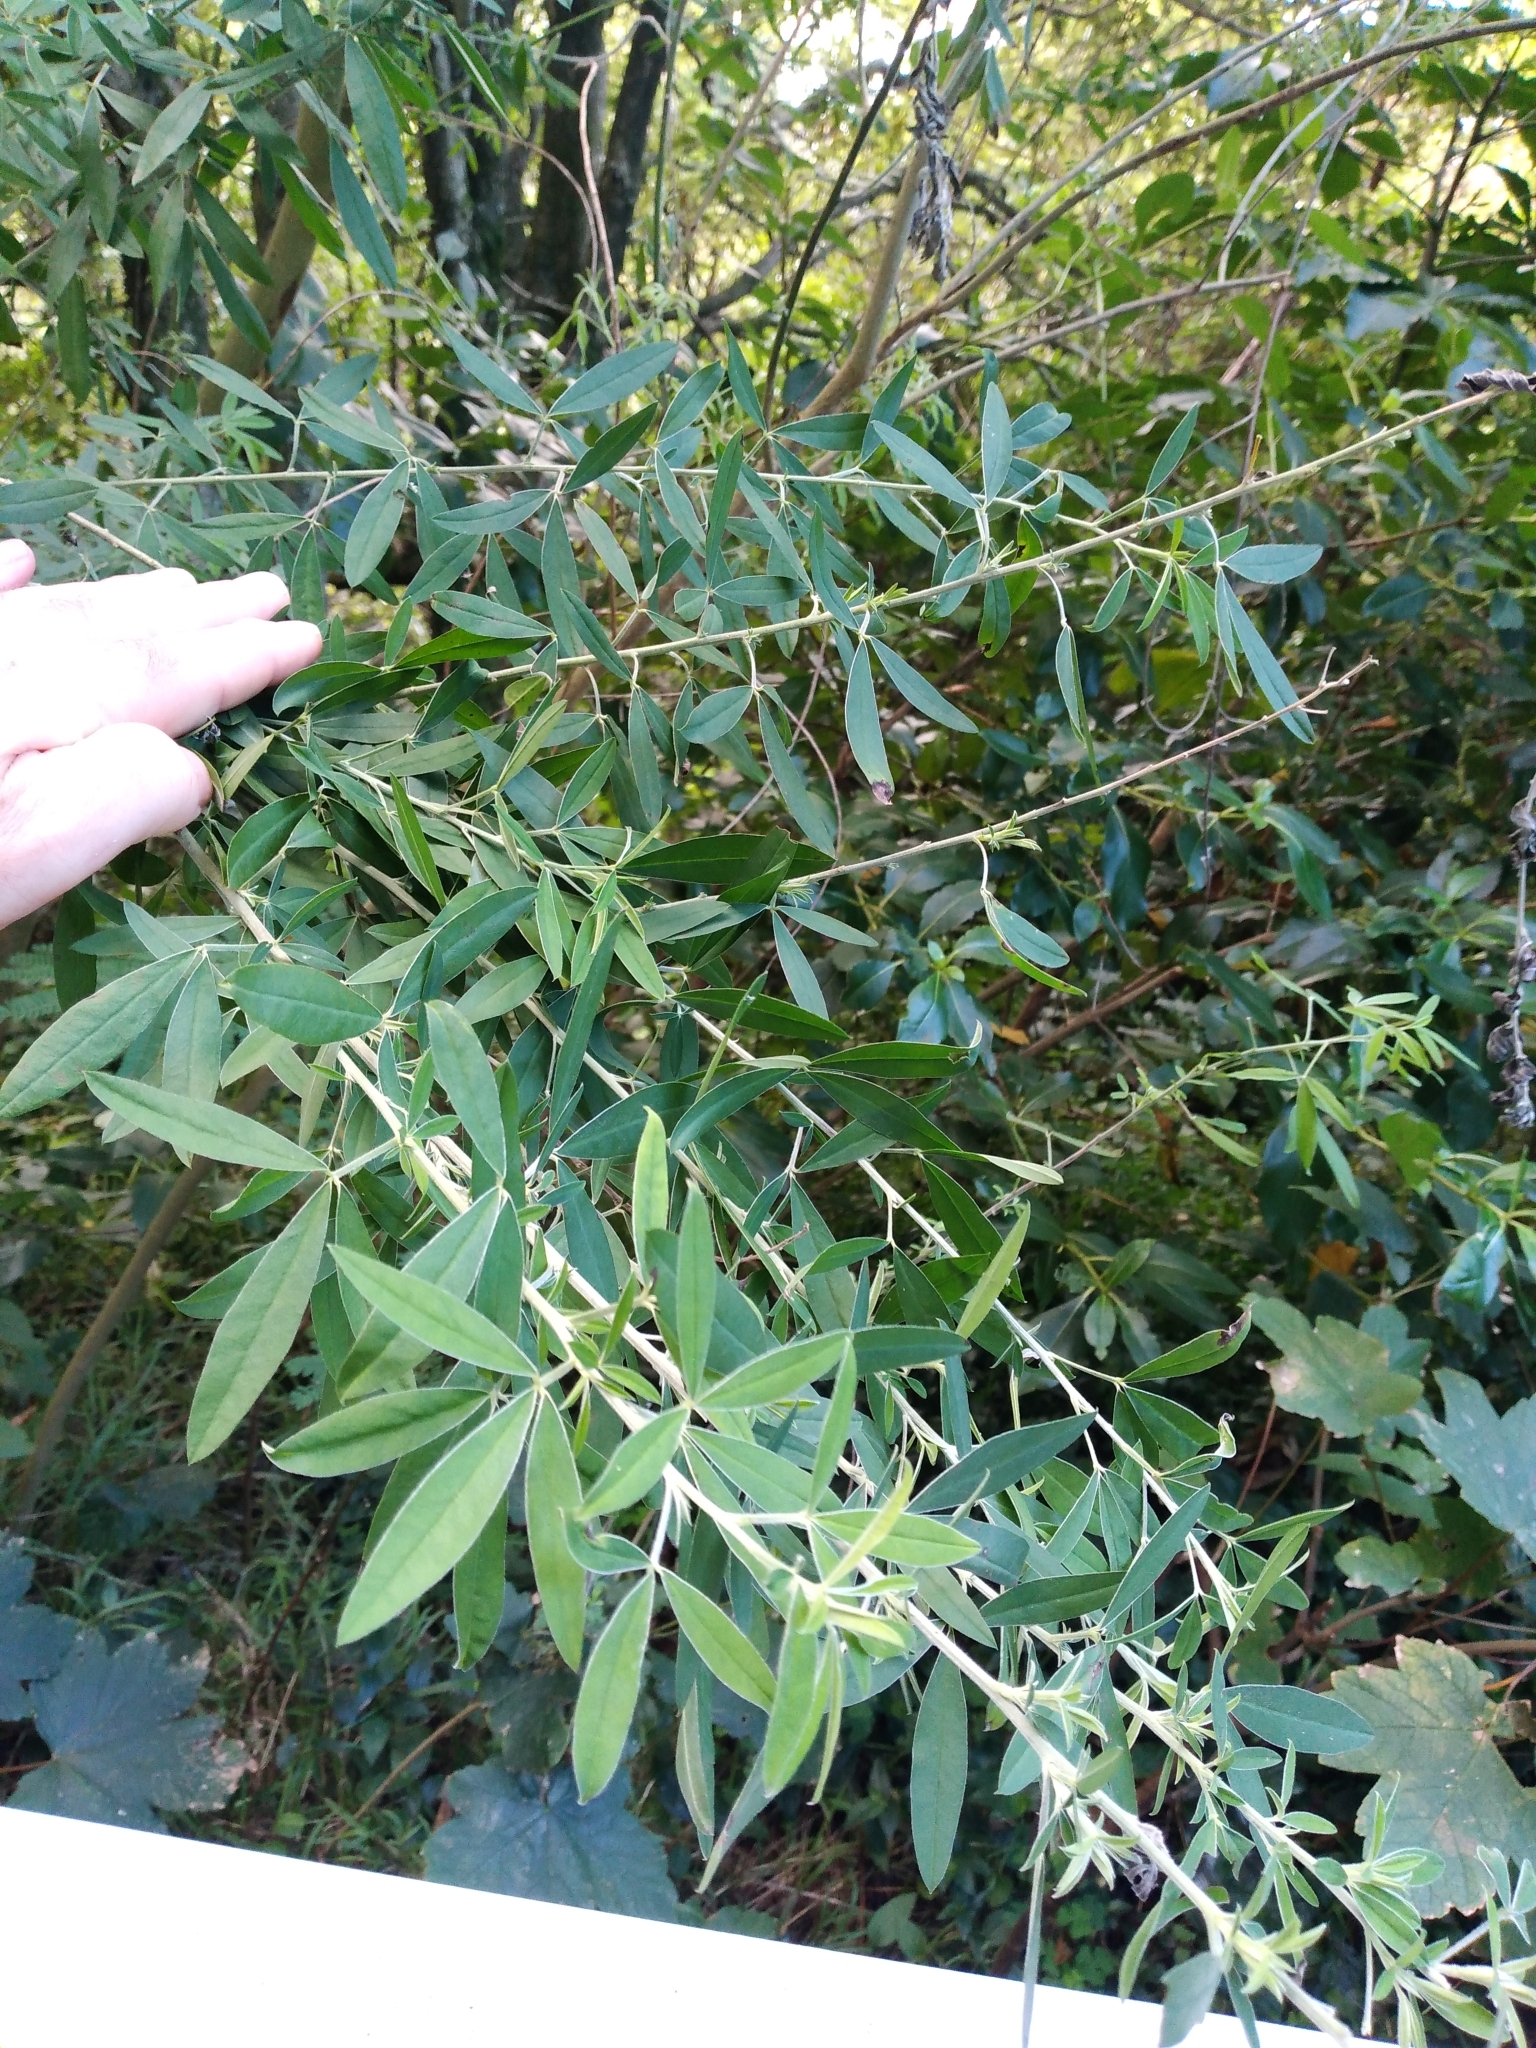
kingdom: Plantae
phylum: Tracheophyta
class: Magnoliopsida
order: Fabales
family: Fabaceae
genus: Chamaecytisus
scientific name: Chamaecytisus prolifer
